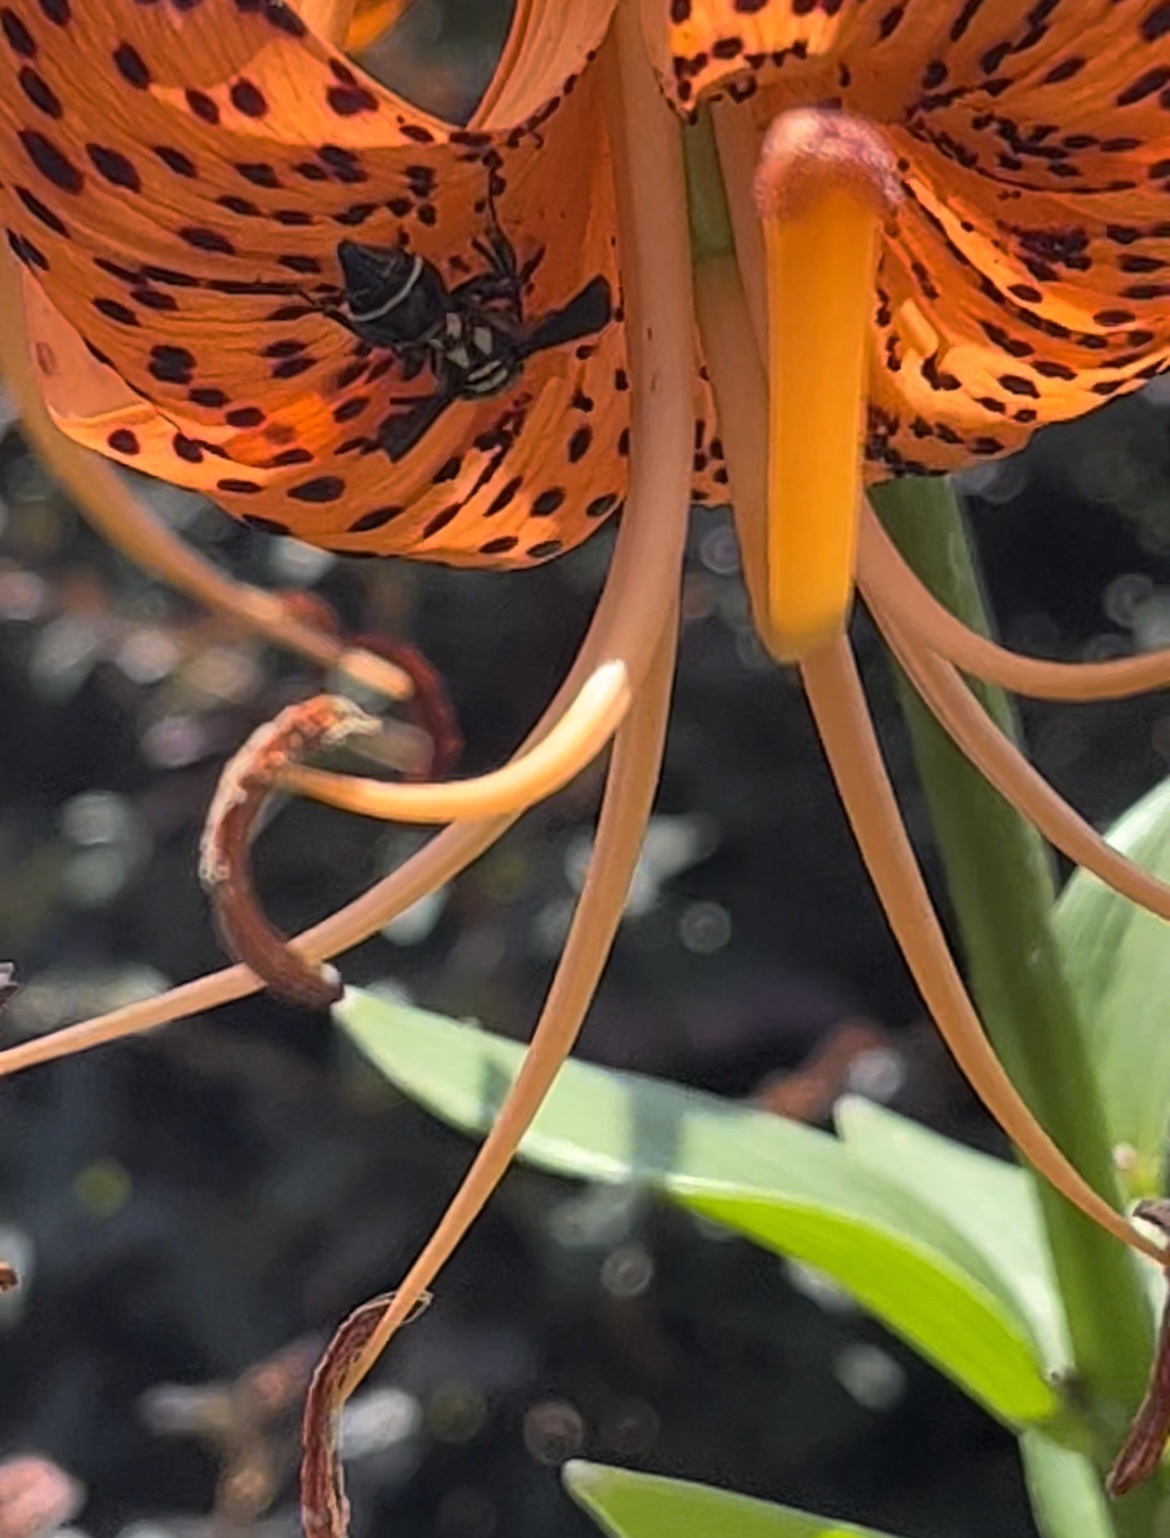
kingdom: Animalia
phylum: Arthropoda
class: Insecta
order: Hymenoptera
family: Eumenidae
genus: Zethus
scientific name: Zethus spinipes
